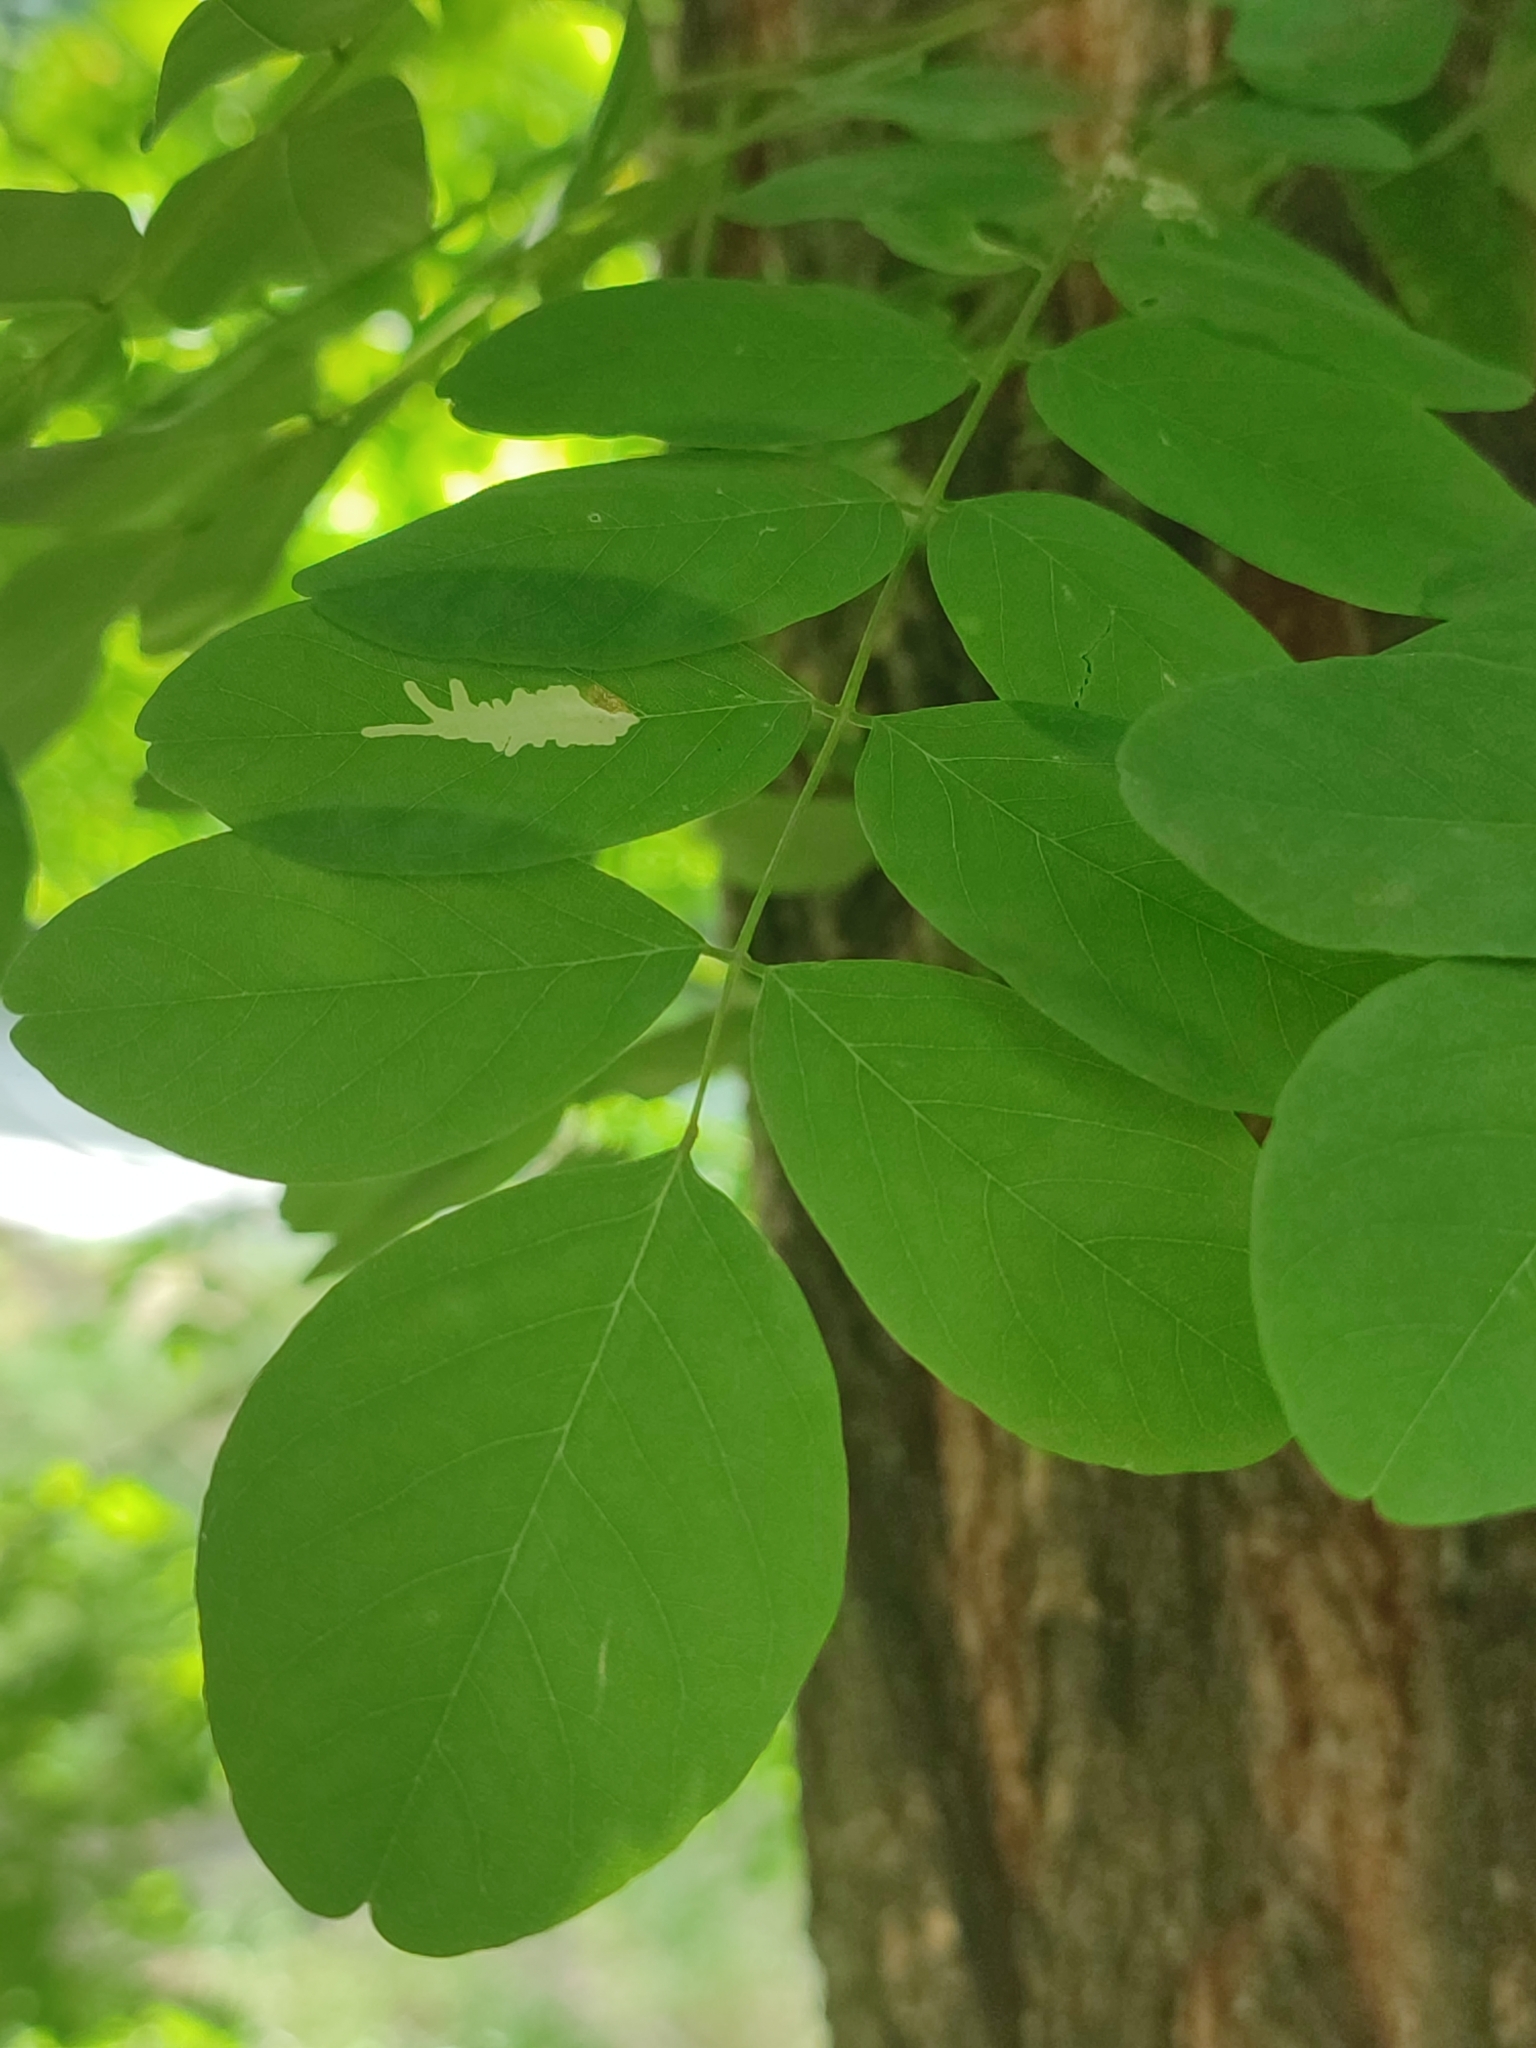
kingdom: Animalia
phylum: Arthropoda
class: Insecta
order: Lepidoptera
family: Gracillariidae
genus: Parectopa
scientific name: Parectopa robiniella
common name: Locust digitate leafminer
